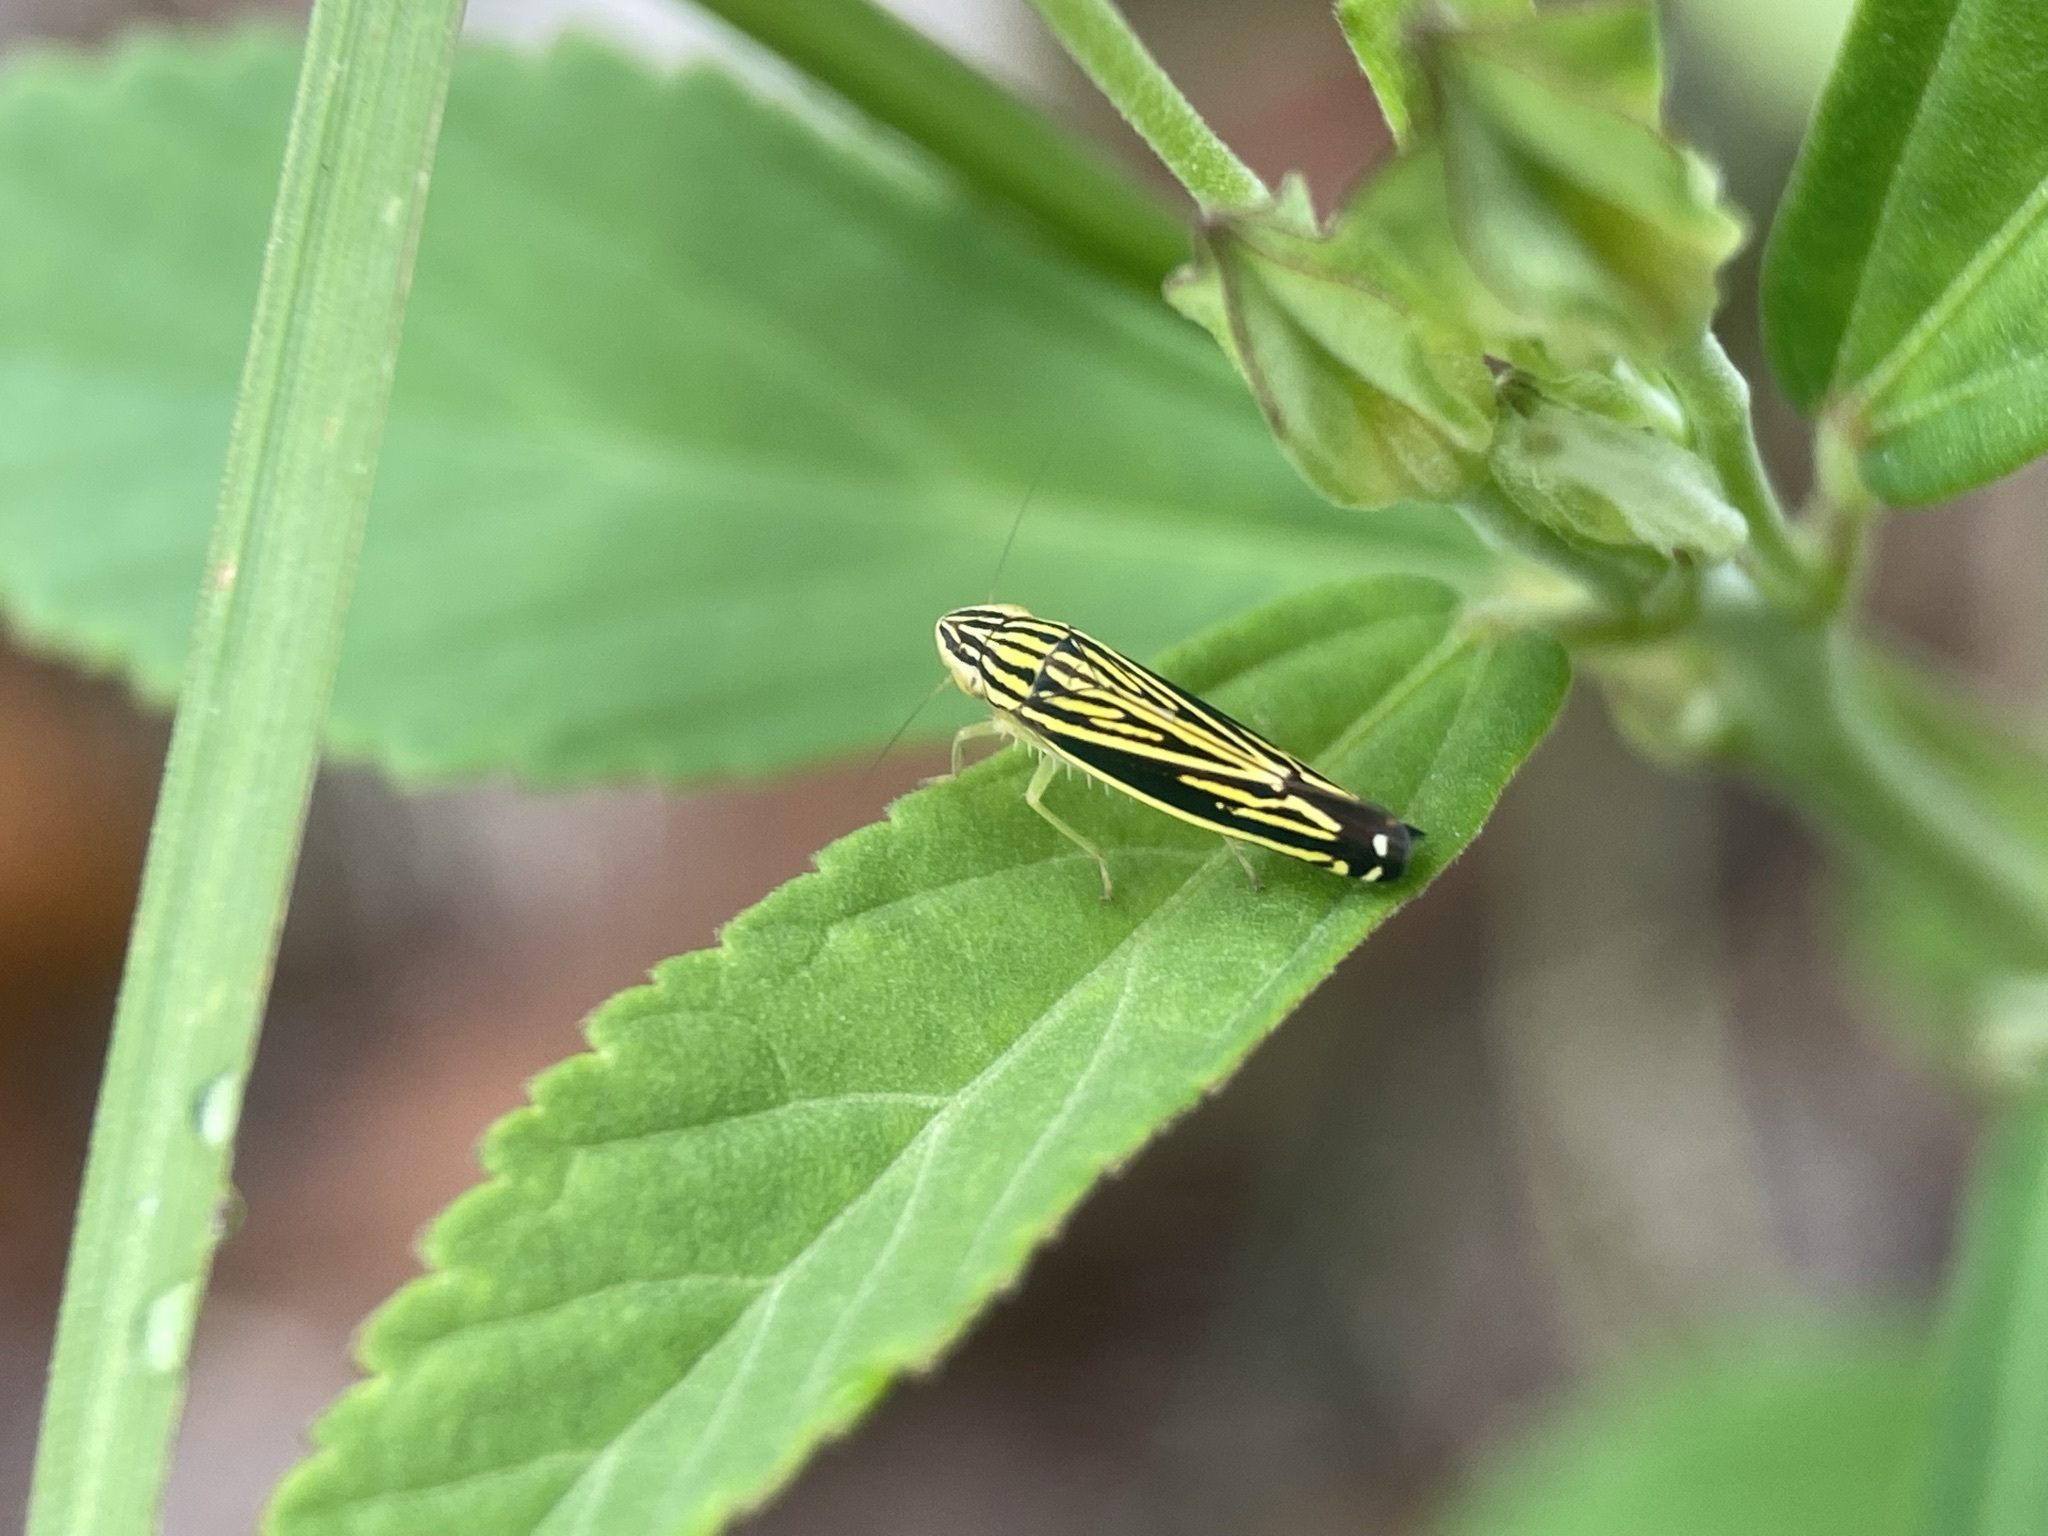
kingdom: Animalia
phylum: Arthropoda
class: Insecta
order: Hemiptera
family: Cicadellidae
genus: Sibovia
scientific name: Sibovia occatoria
